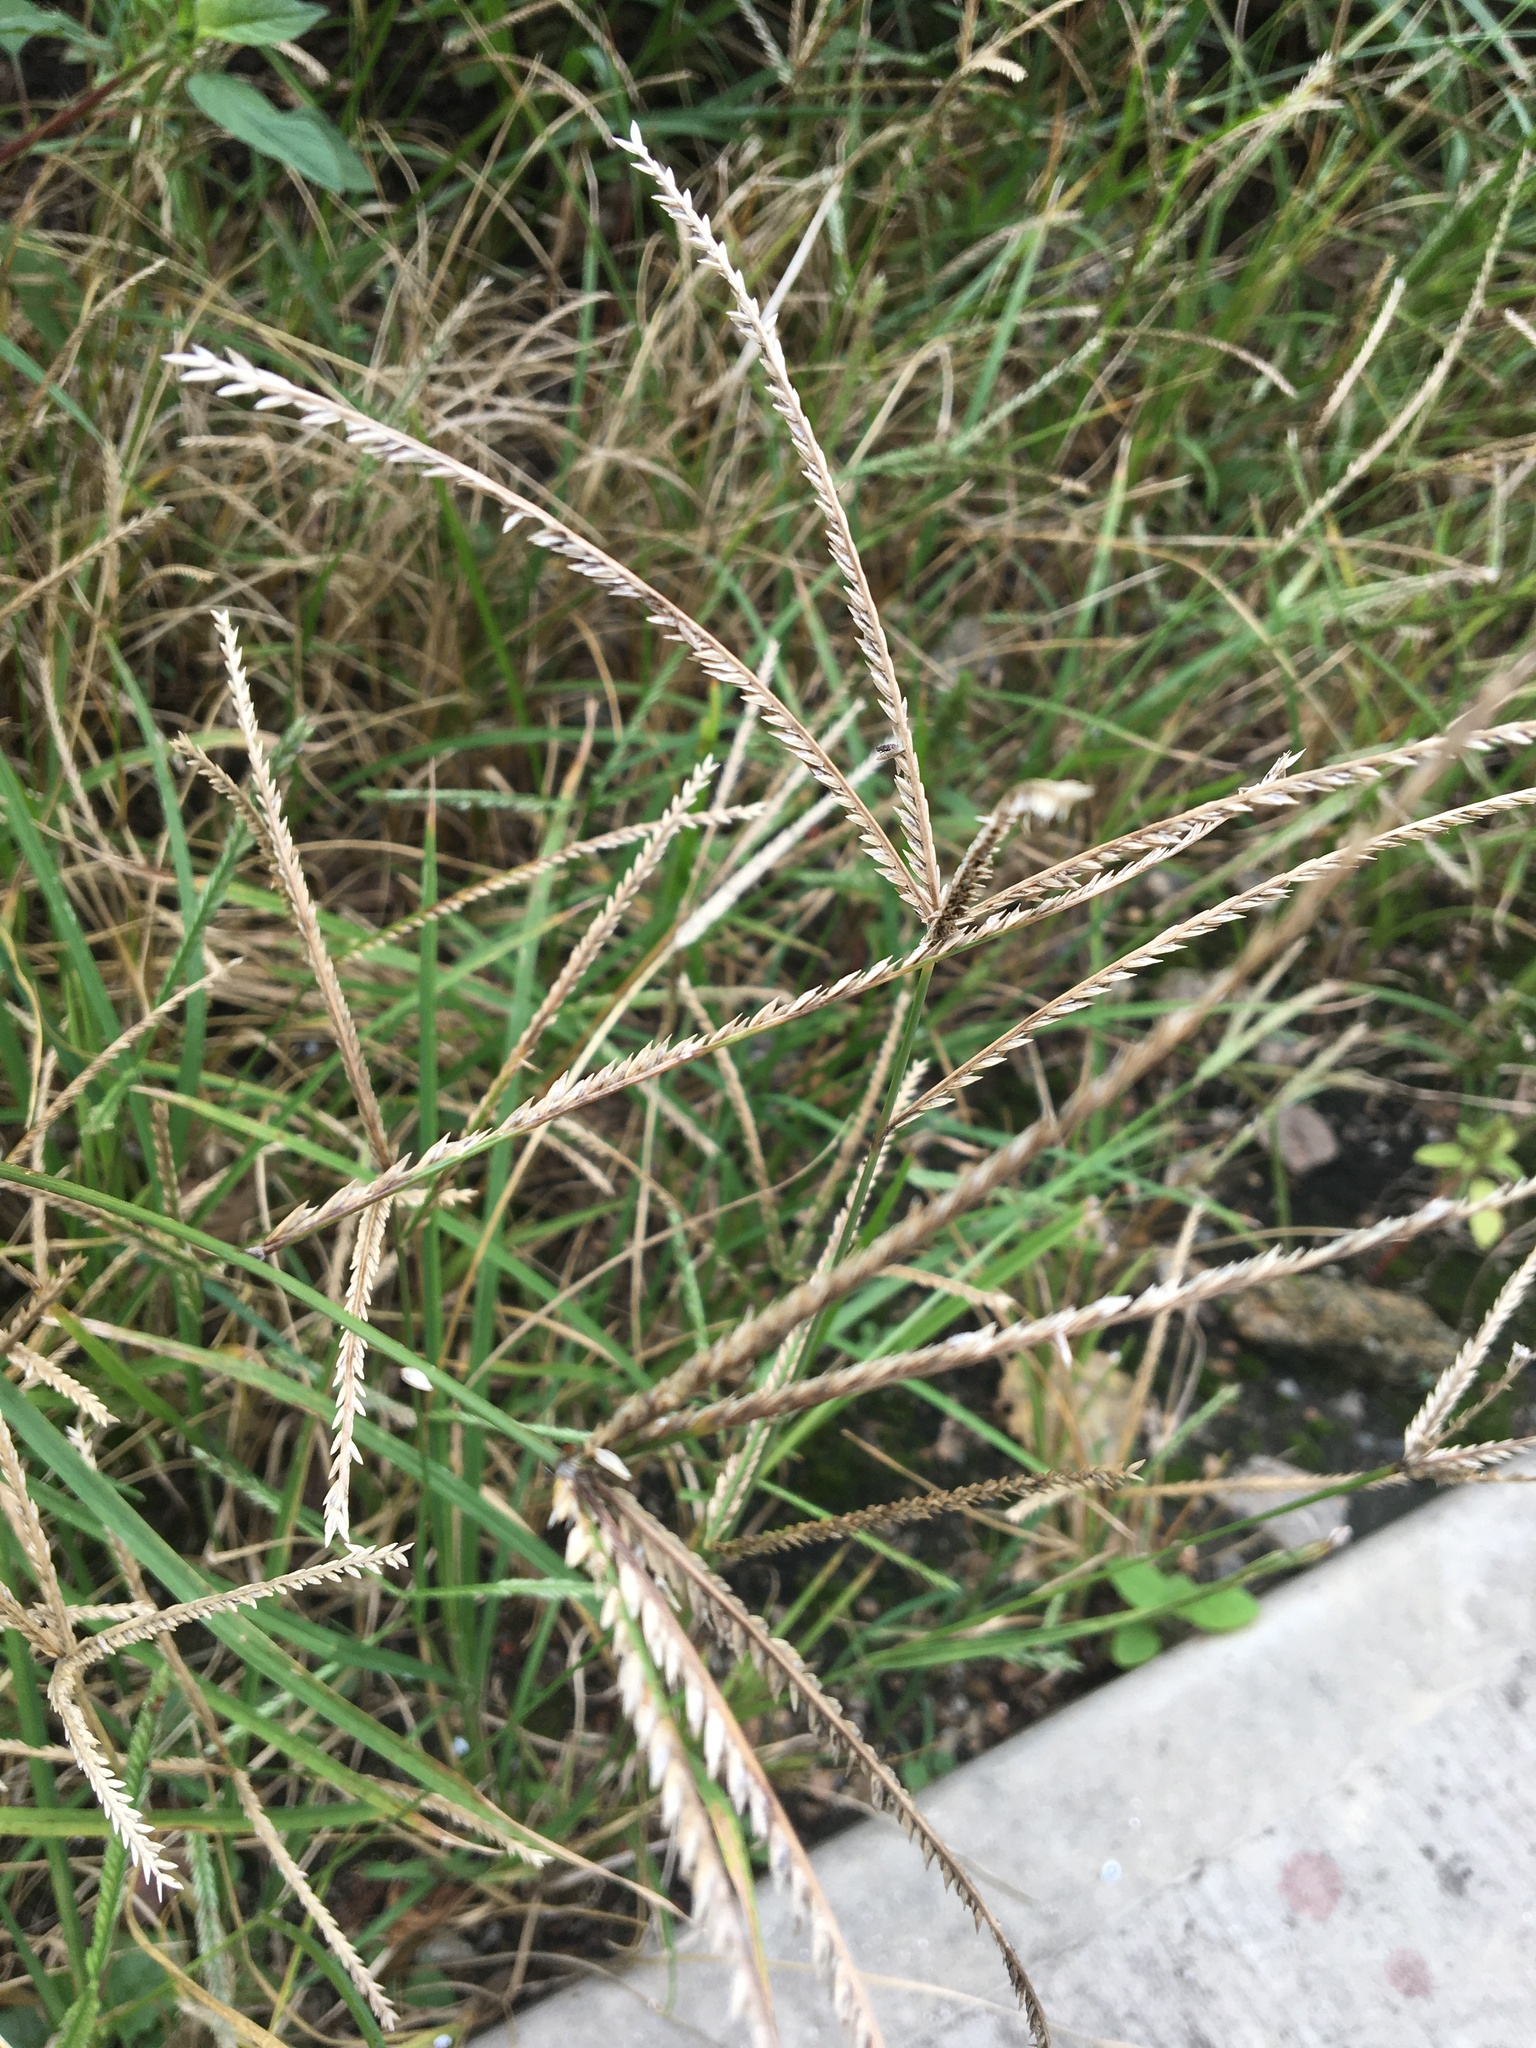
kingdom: Plantae
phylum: Tracheophyta
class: Liliopsida
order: Poales
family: Poaceae
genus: Eleusine
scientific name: Eleusine indica
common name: Yard-grass
